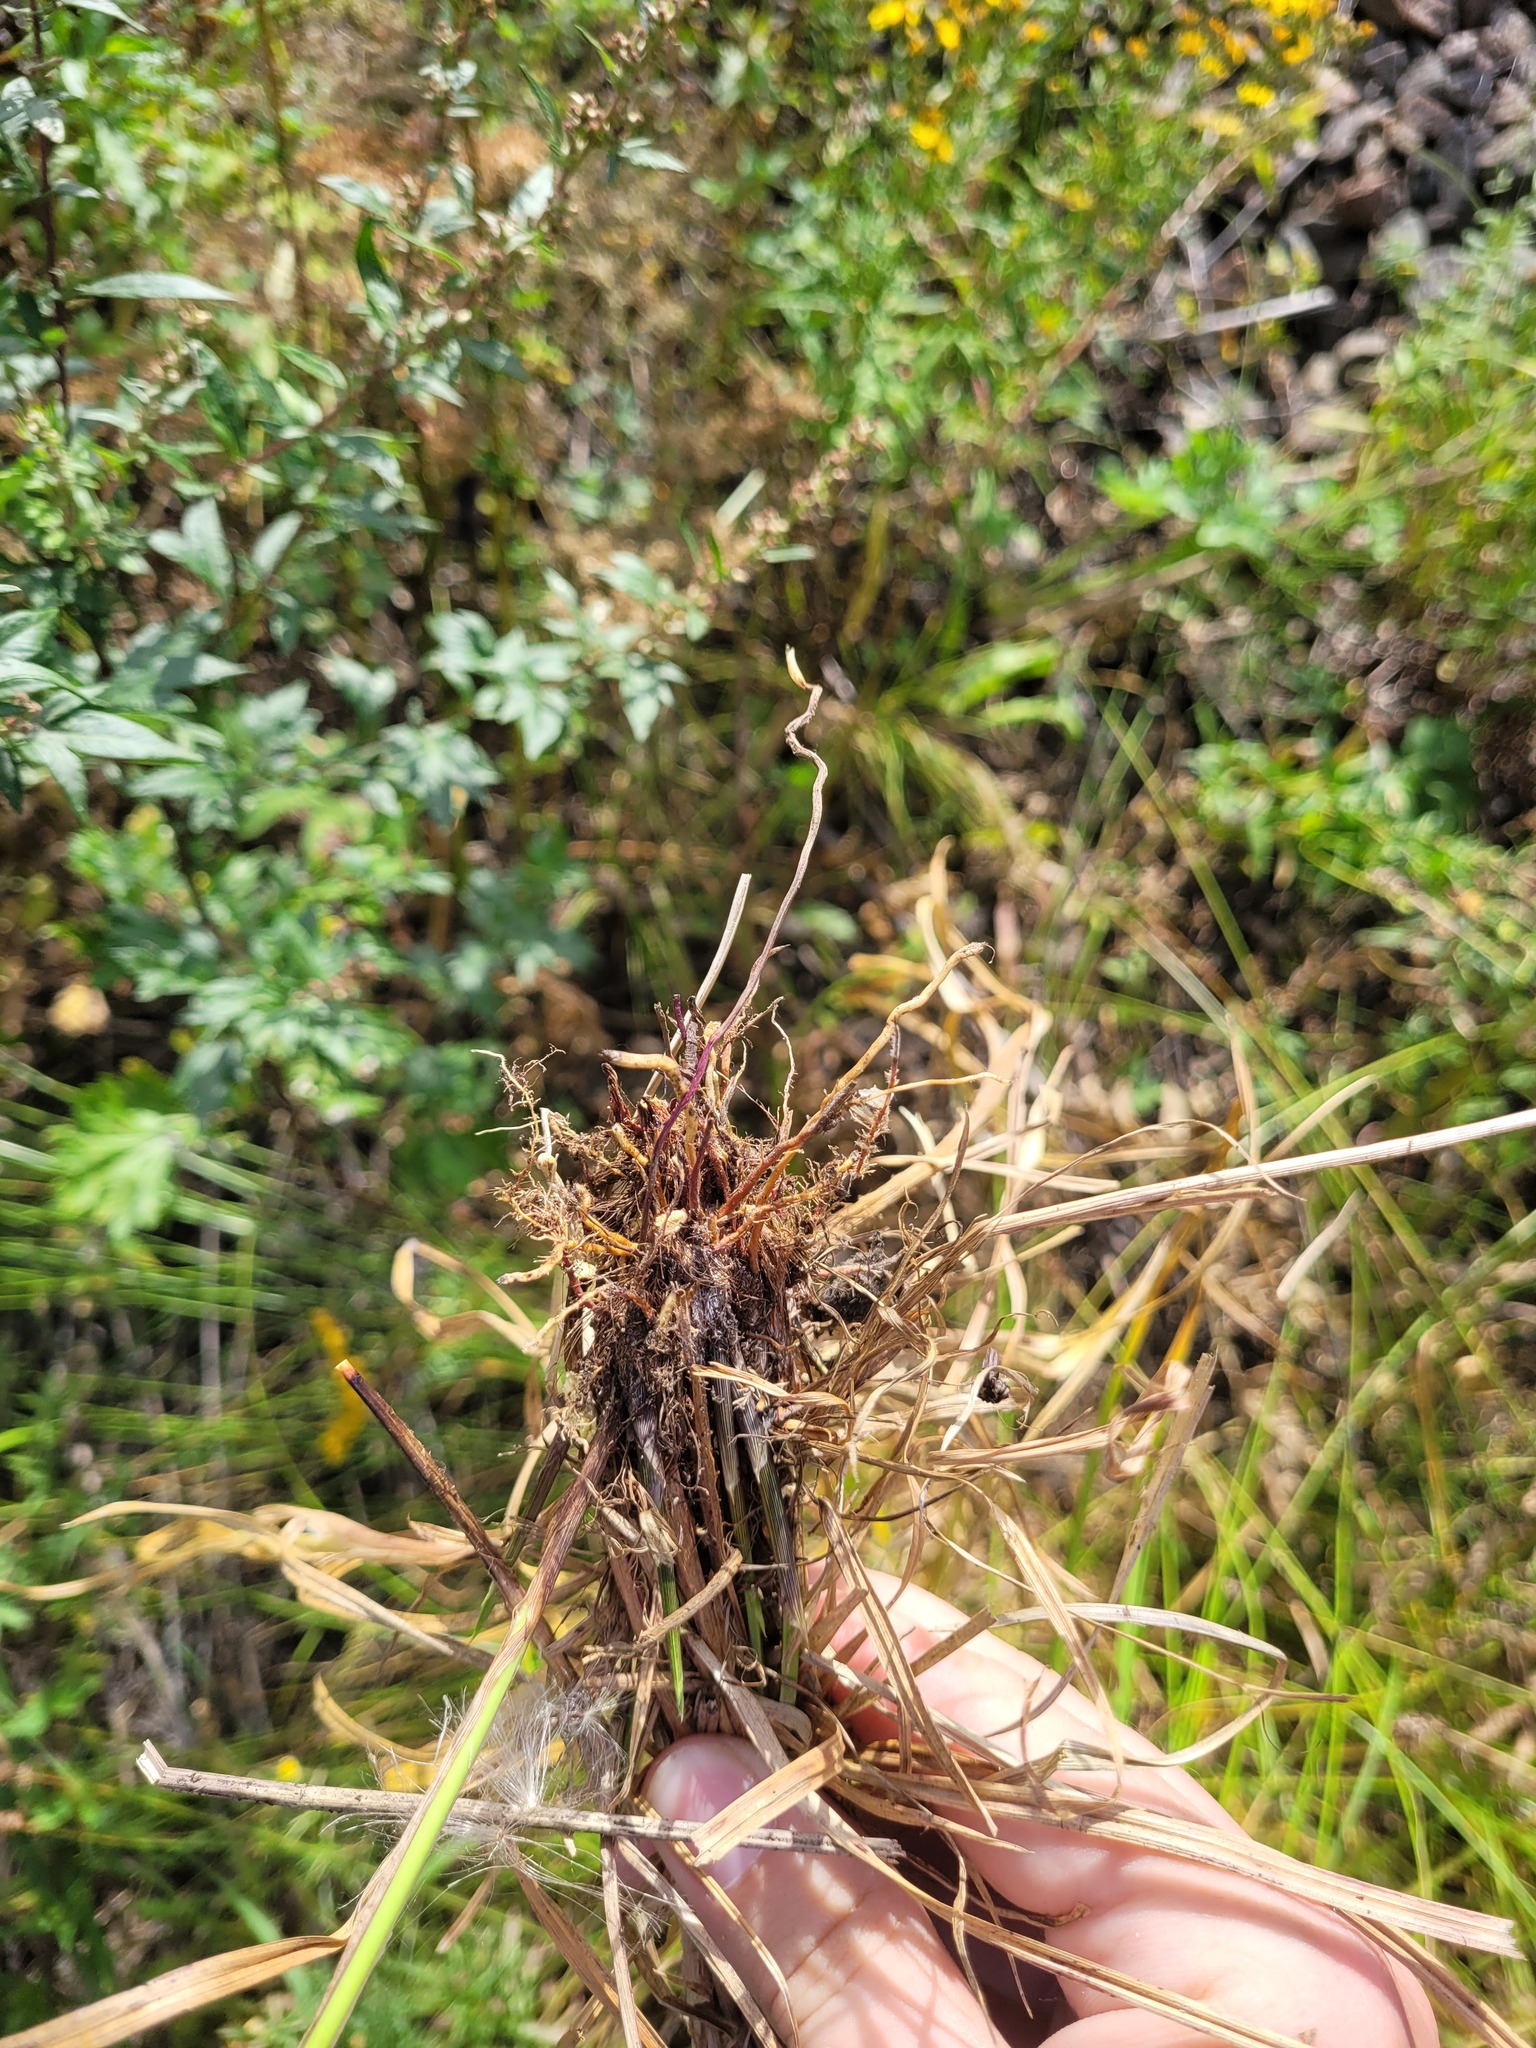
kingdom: Plantae
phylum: Tracheophyta
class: Liliopsida
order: Poales
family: Cyperaceae
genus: Carex
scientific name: Carex spicata
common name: Spiked sedge
